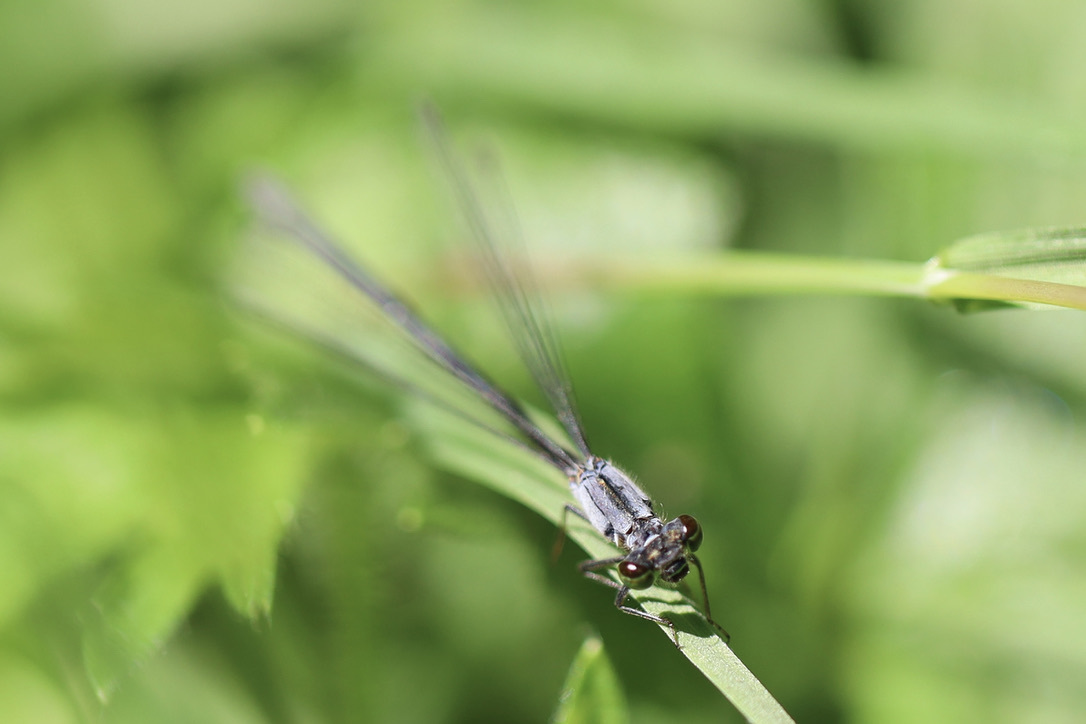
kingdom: Animalia
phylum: Arthropoda
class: Insecta
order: Odonata
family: Coenagrionidae
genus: Ischnura
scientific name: Ischnura cervula
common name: Pacific forktail
